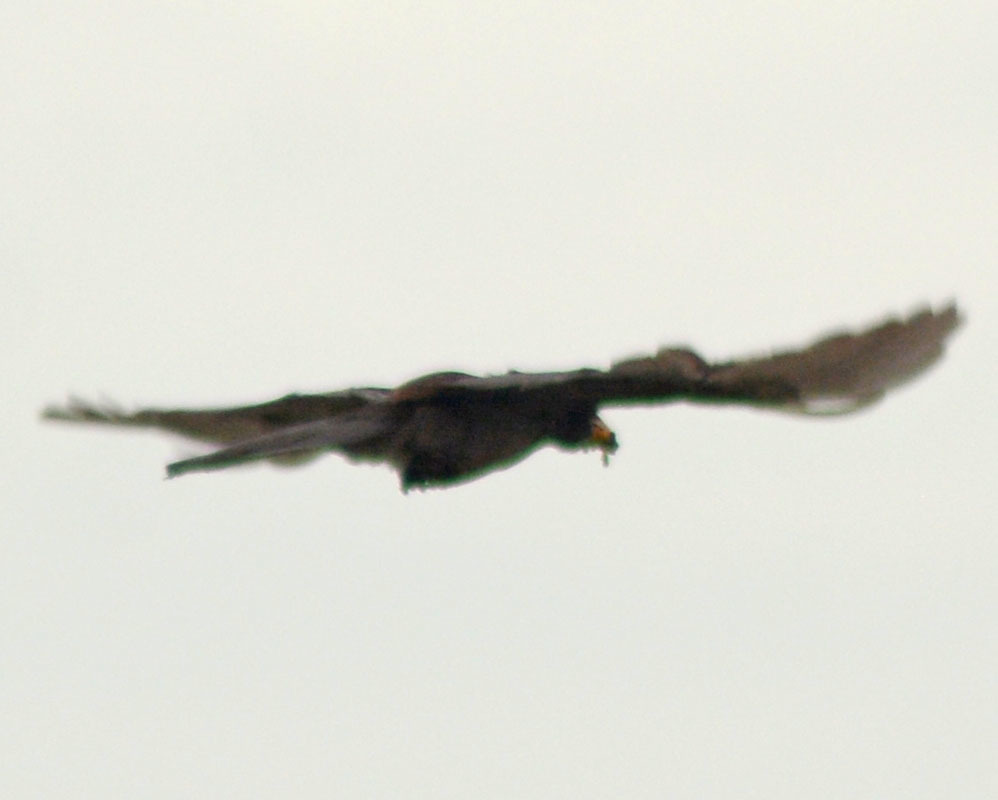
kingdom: Animalia
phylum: Chordata
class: Aves
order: Passeriformes
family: Corvidae
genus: Psilorhinus
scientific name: Psilorhinus morio
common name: Brown jay
